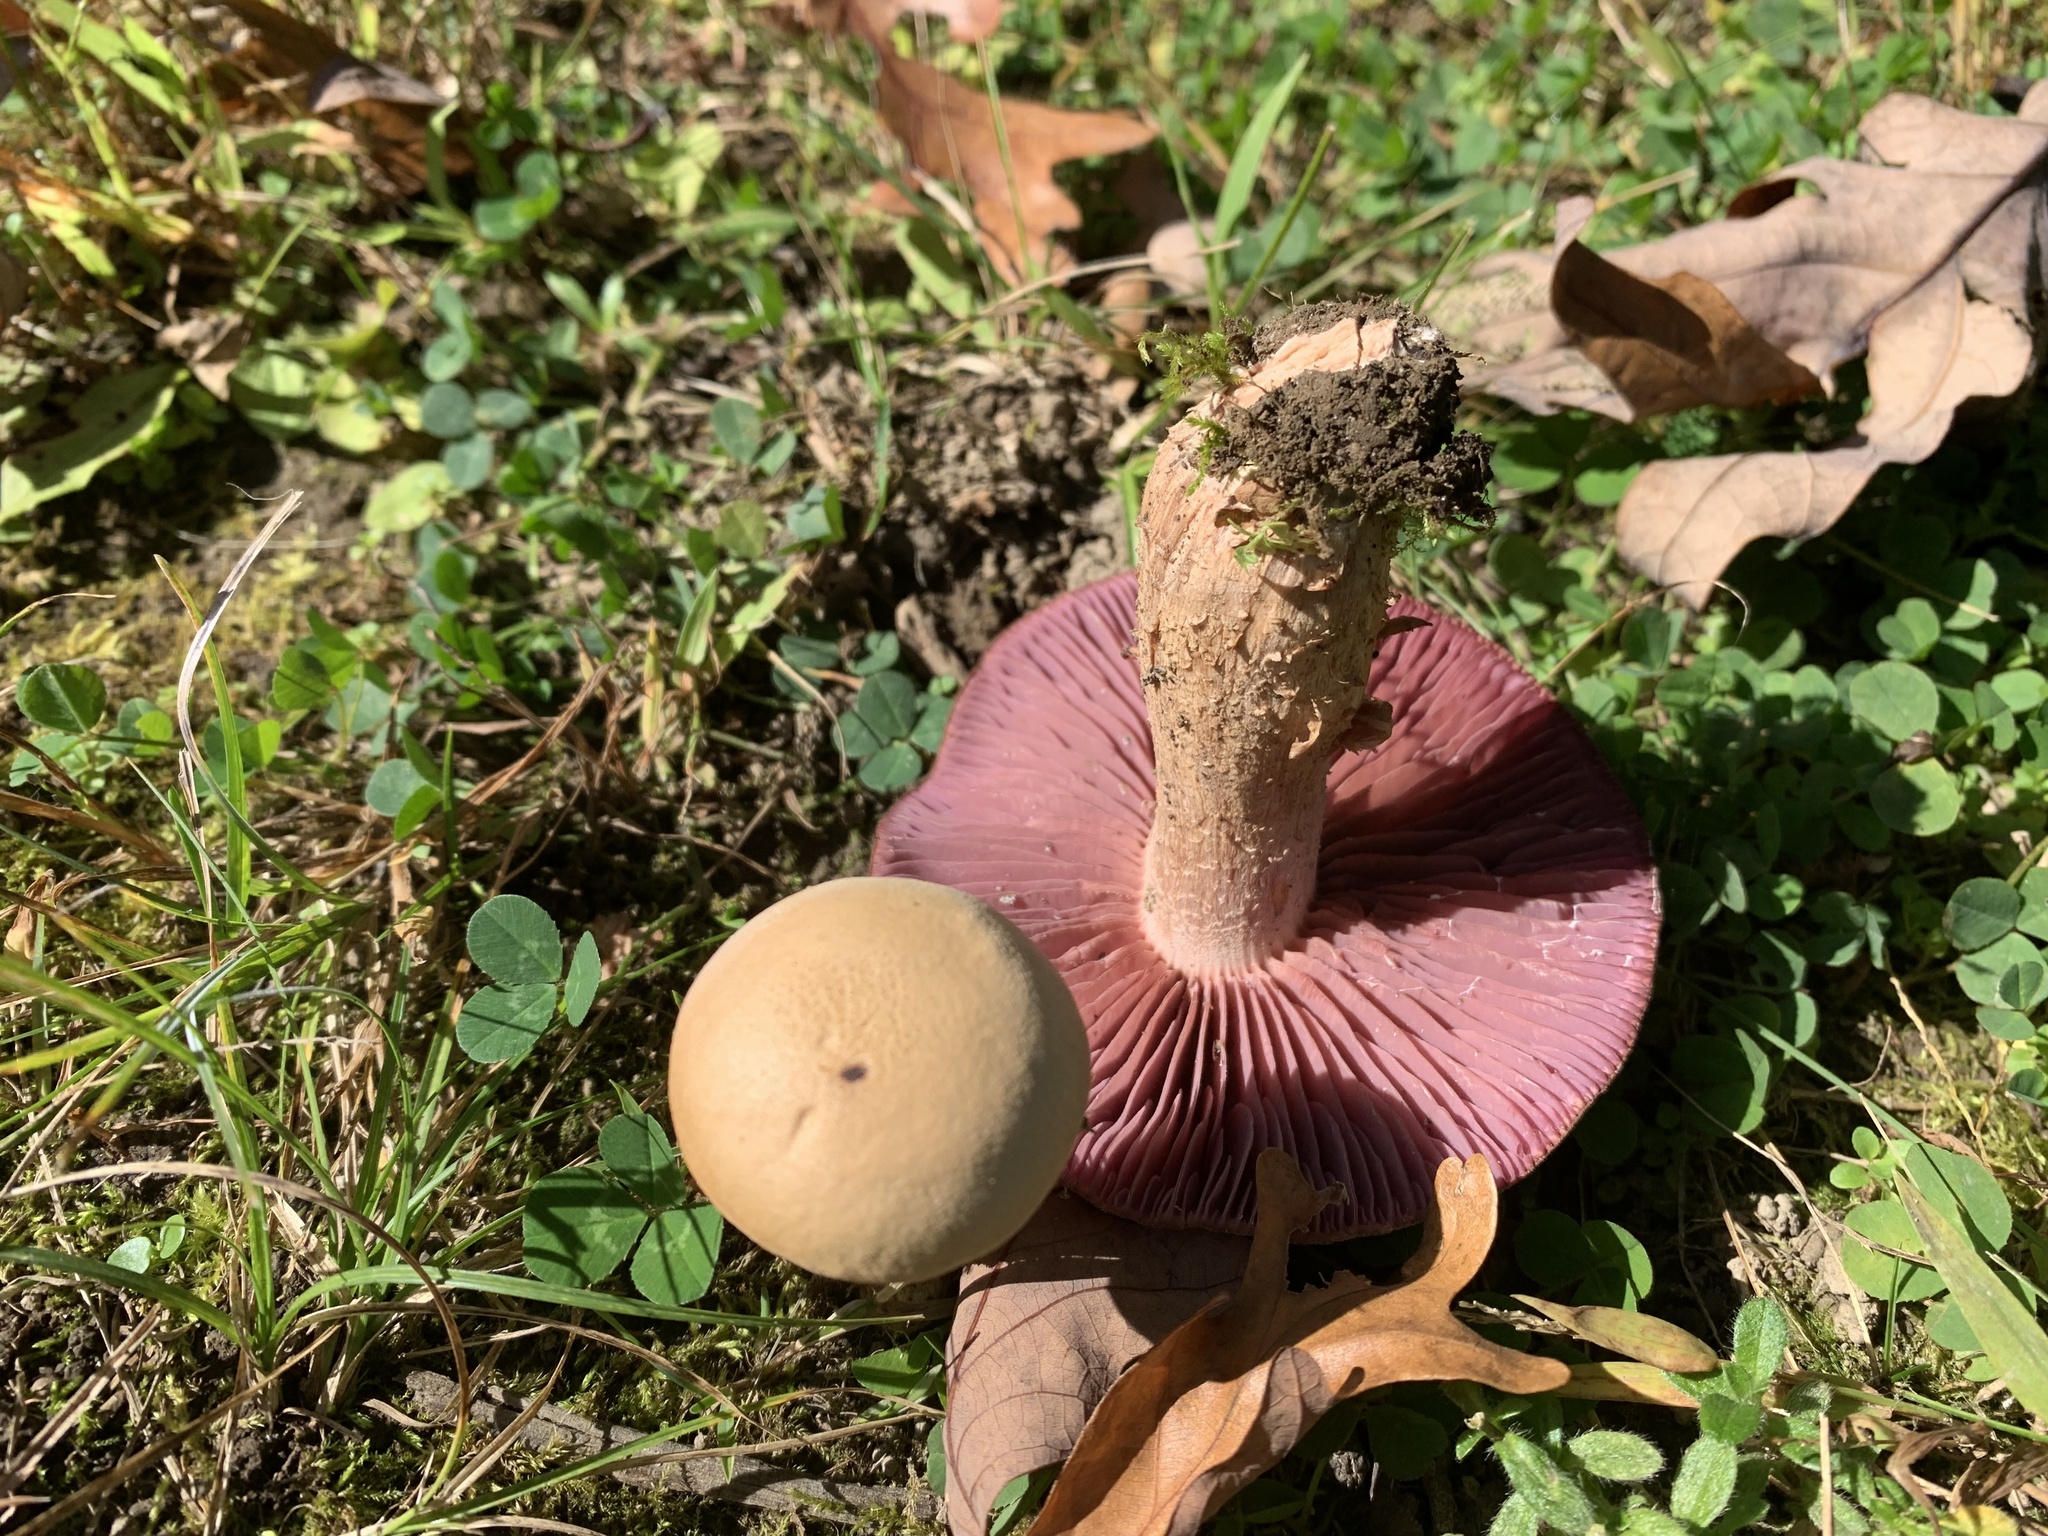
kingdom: Fungi
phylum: Basidiomycota
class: Agaricomycetes
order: Agaricales
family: Hydnangiaceae
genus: Laccaria
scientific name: Laccaria ochropurpurea
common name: Purple laccaria
